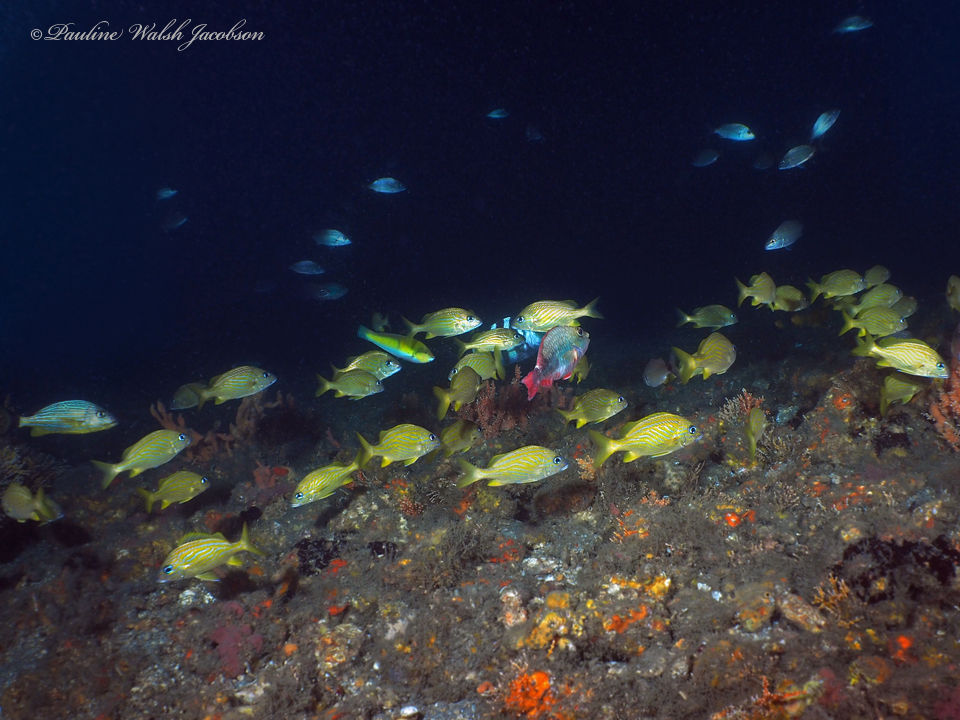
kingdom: Animalia
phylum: Chordata
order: Perciformes
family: Haemulidae
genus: Haemulon
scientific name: Haemulon flavolineatum
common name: French grunt
